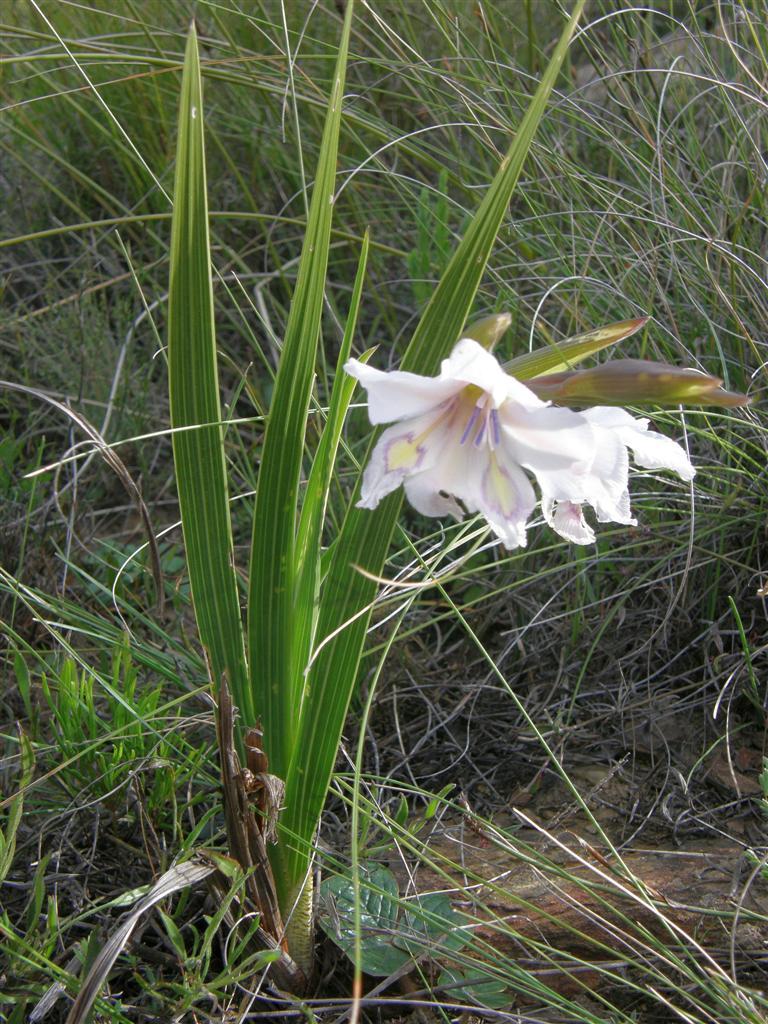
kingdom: Plantae
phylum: Tracheophyta
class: Liliopsida
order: Asparagales
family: Iridaceae
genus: Gladiolus
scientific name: Gladiolus rudis
